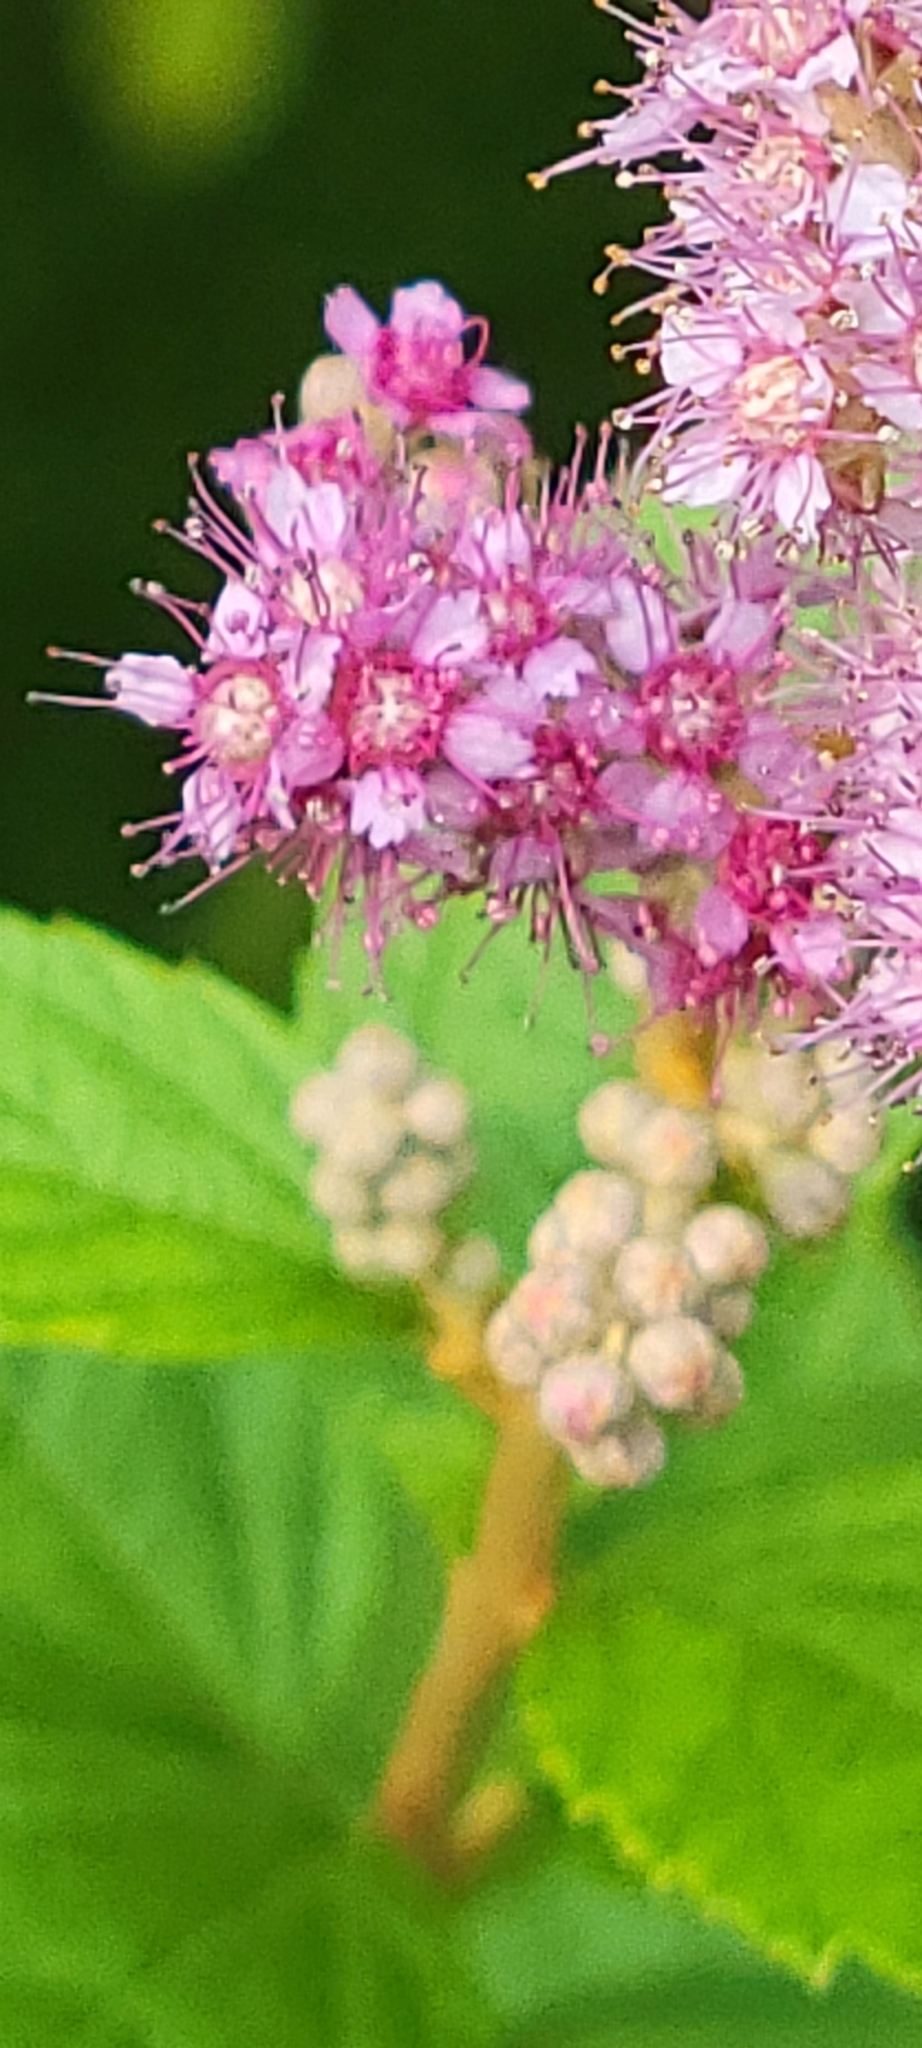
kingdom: Plantae
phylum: Tracheophyta
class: Magnoliopsida
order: Rosales
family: Rosaceae
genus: Spiraea
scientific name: Spiraea tomentosa
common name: Hardhack
